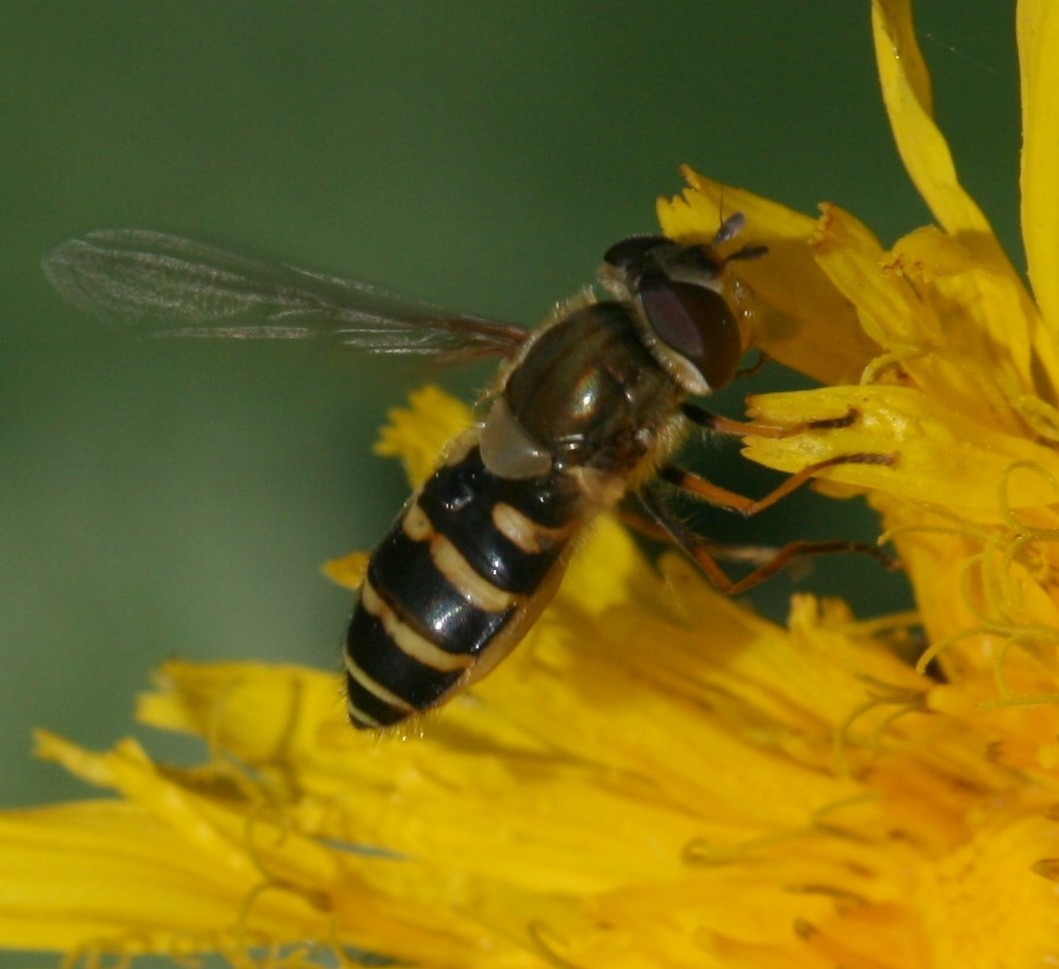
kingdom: Animalia
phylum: Arthropoda
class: Insecta
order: Diptera
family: Syrphidae
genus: Syrphus
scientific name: Syrphus
